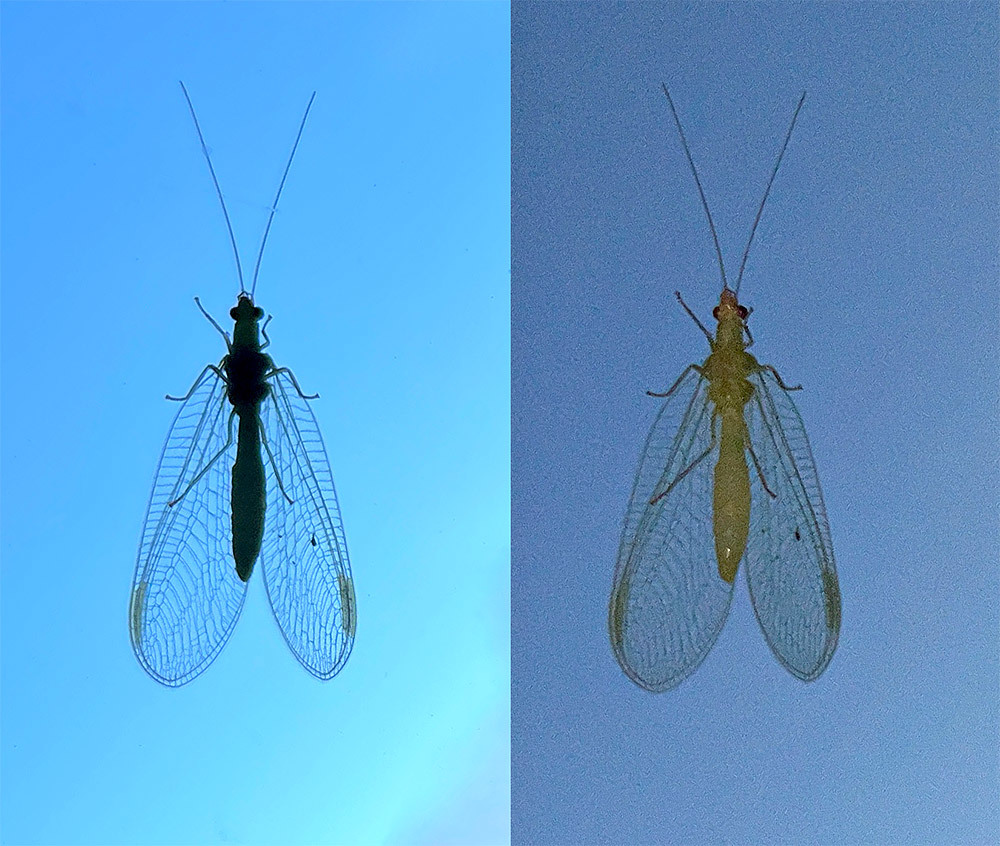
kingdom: Animalia
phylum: Arthropoda
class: Insecta
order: Neuroptera
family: Chrysopidae
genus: Chrysoperla
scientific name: Chrysoperla carnea
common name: Common green lacewing
